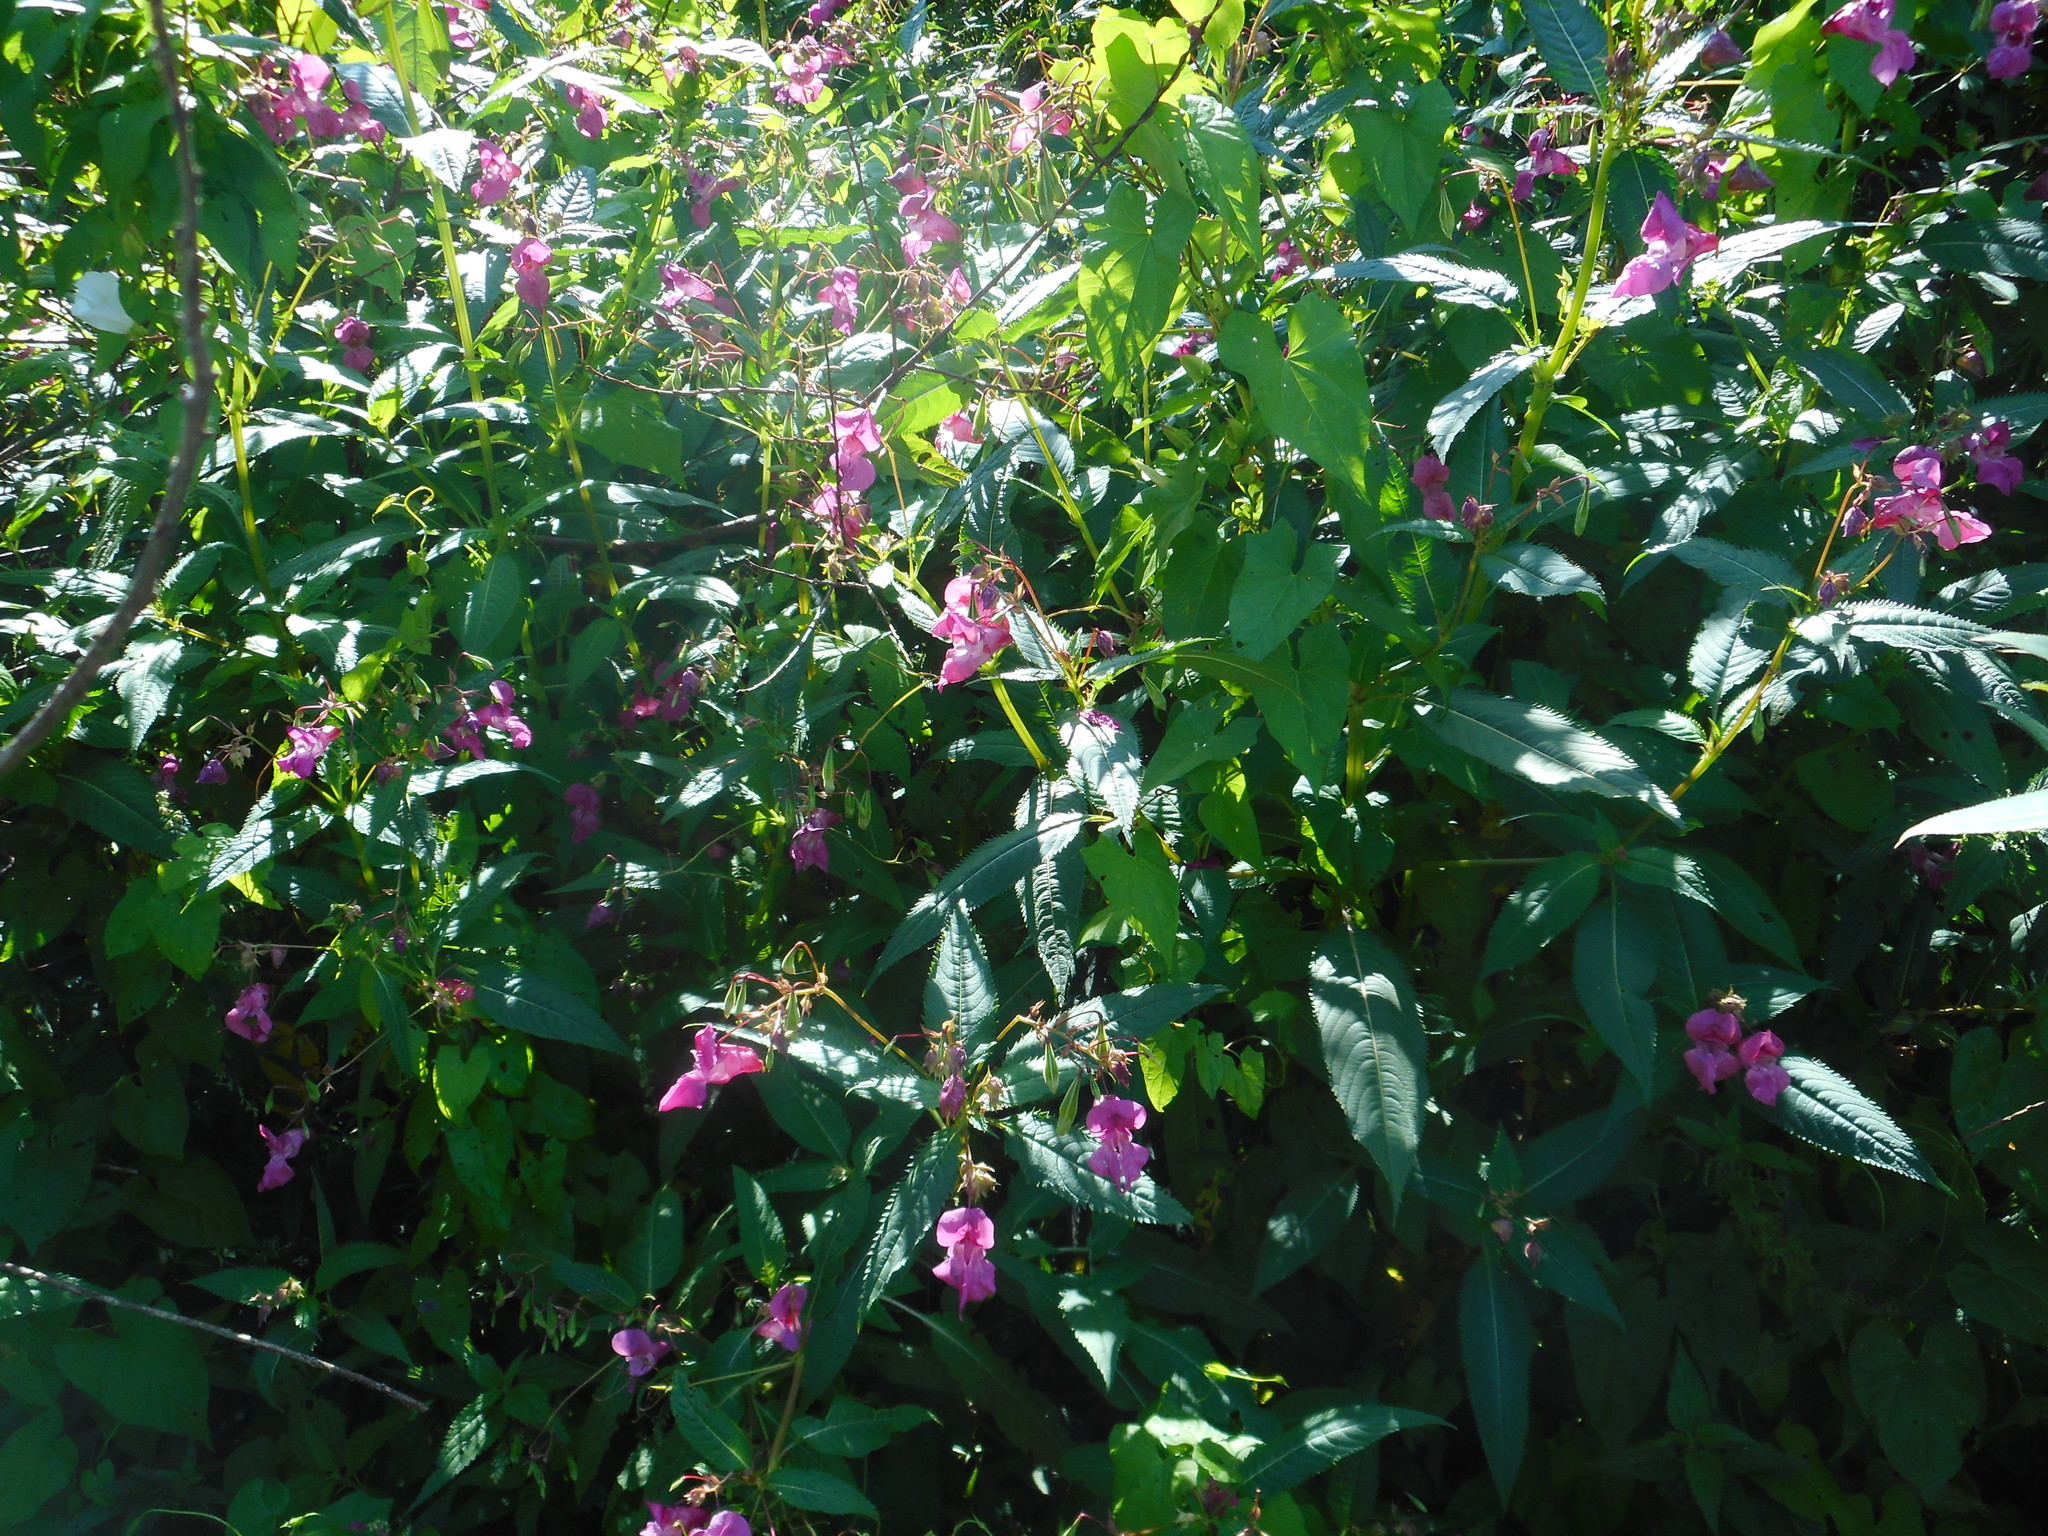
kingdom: Plantae
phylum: Tracheophyta
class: Magnoliopsida
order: Ericales
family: Balsaminaceae
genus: Impatiens
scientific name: Impatiens glandulifera
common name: Himalayan balsam
